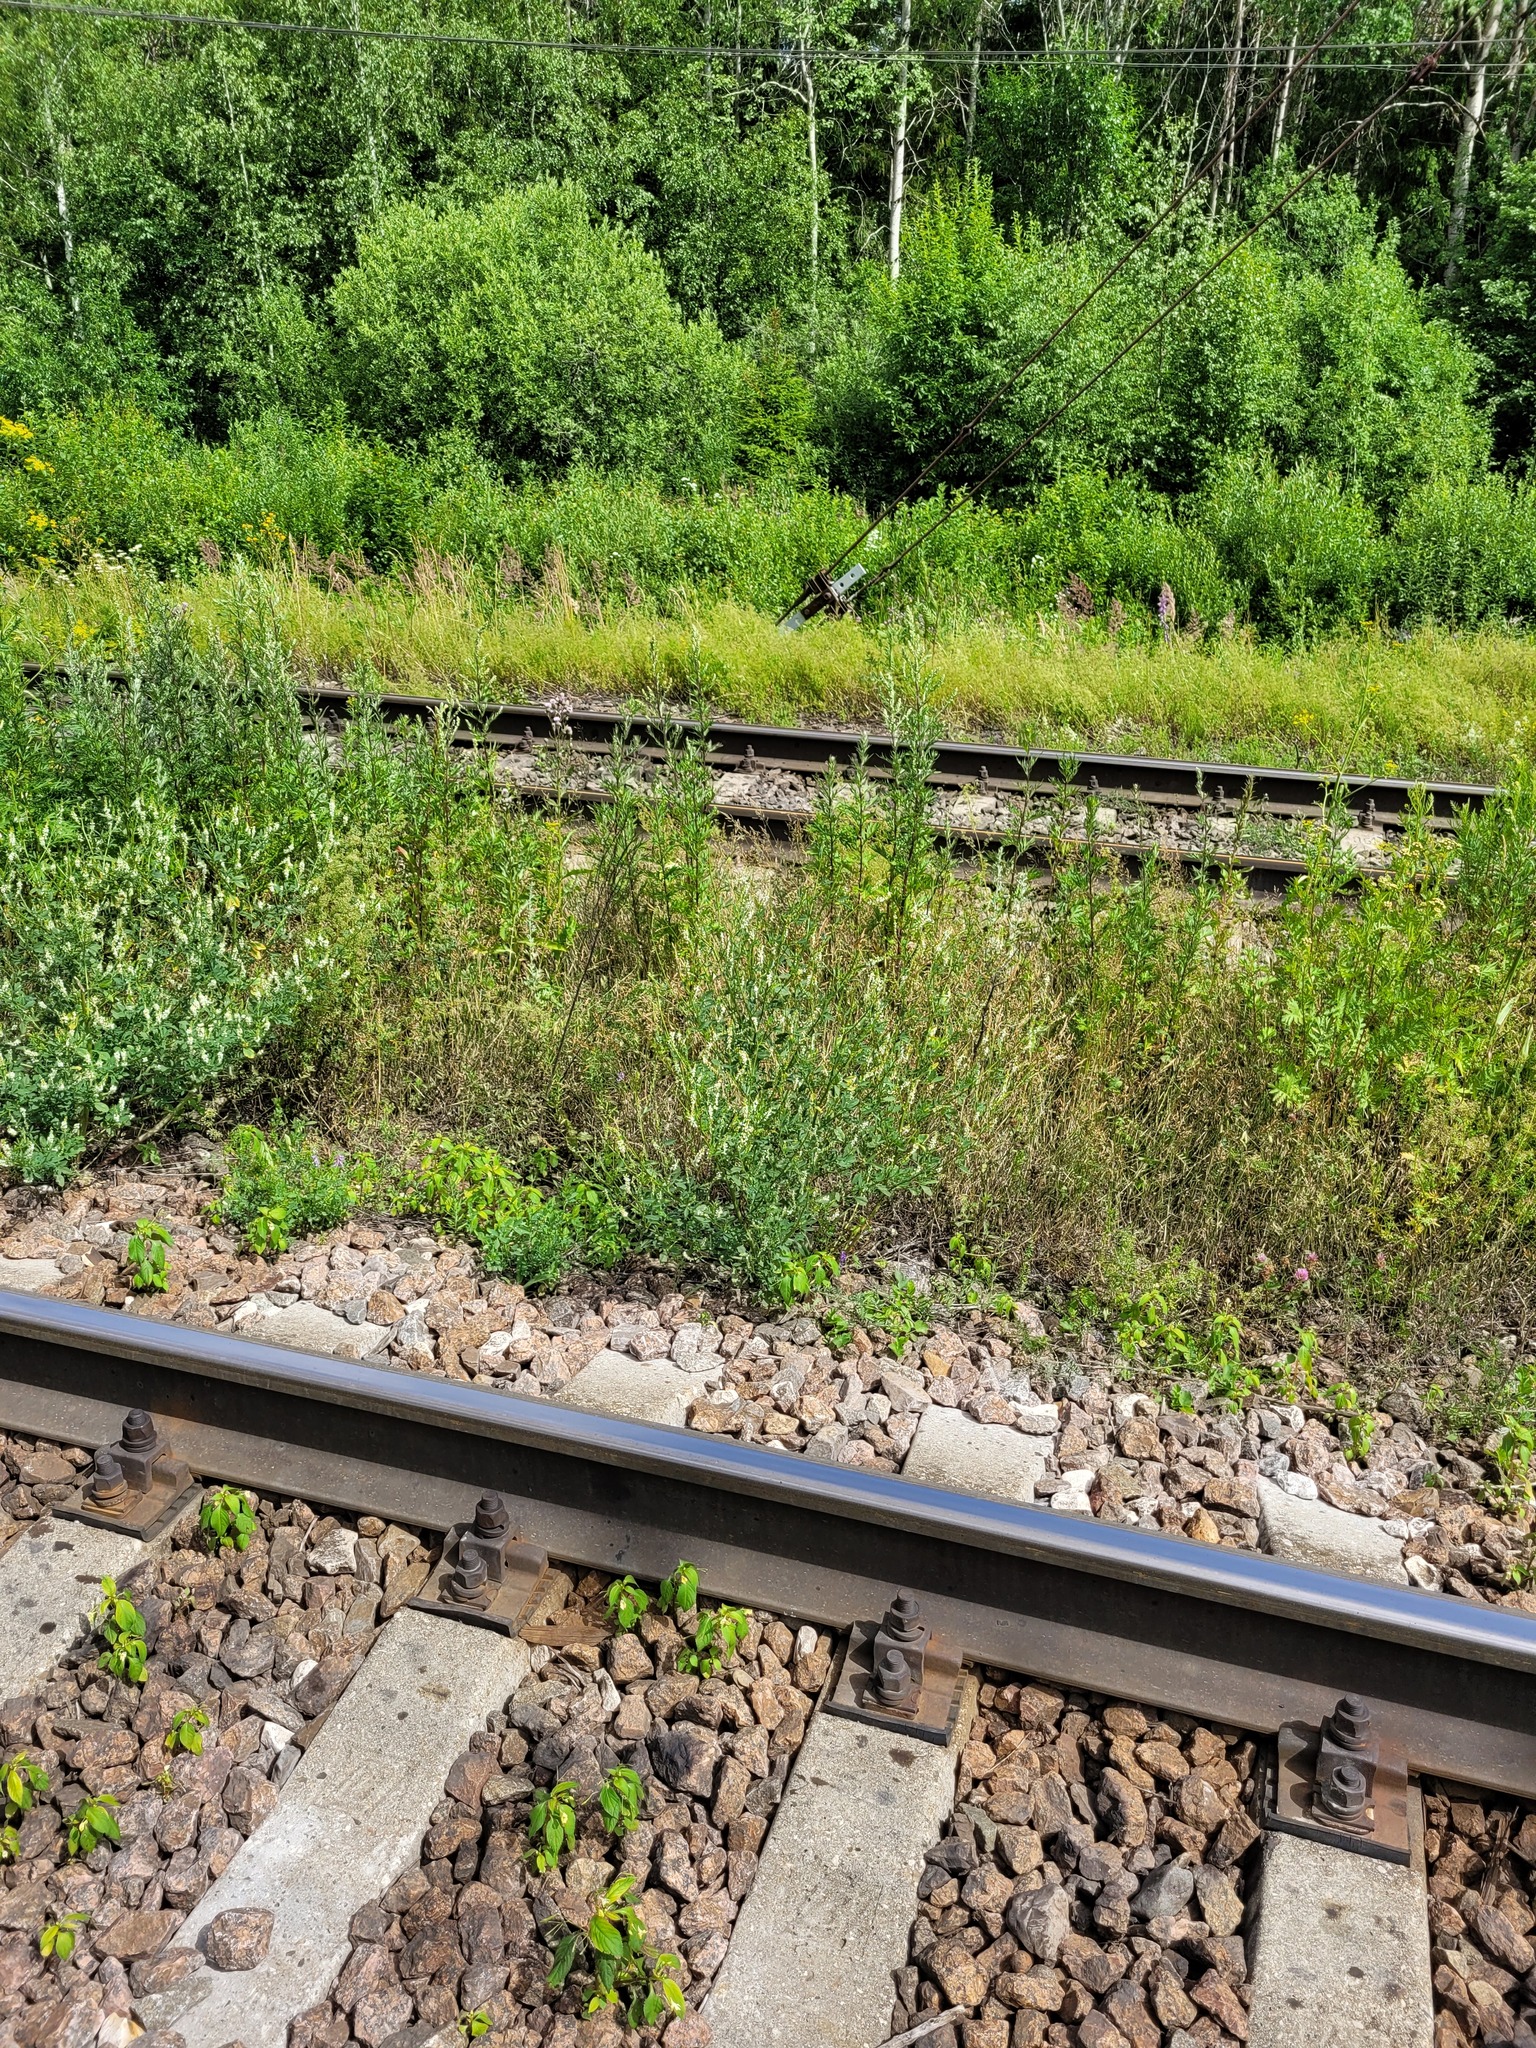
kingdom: Plantae
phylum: Tracheophyta
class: Magnoliopsida
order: Fabales
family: Fabaceae
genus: Melilotus
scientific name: Melilotus albus
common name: White melilot
